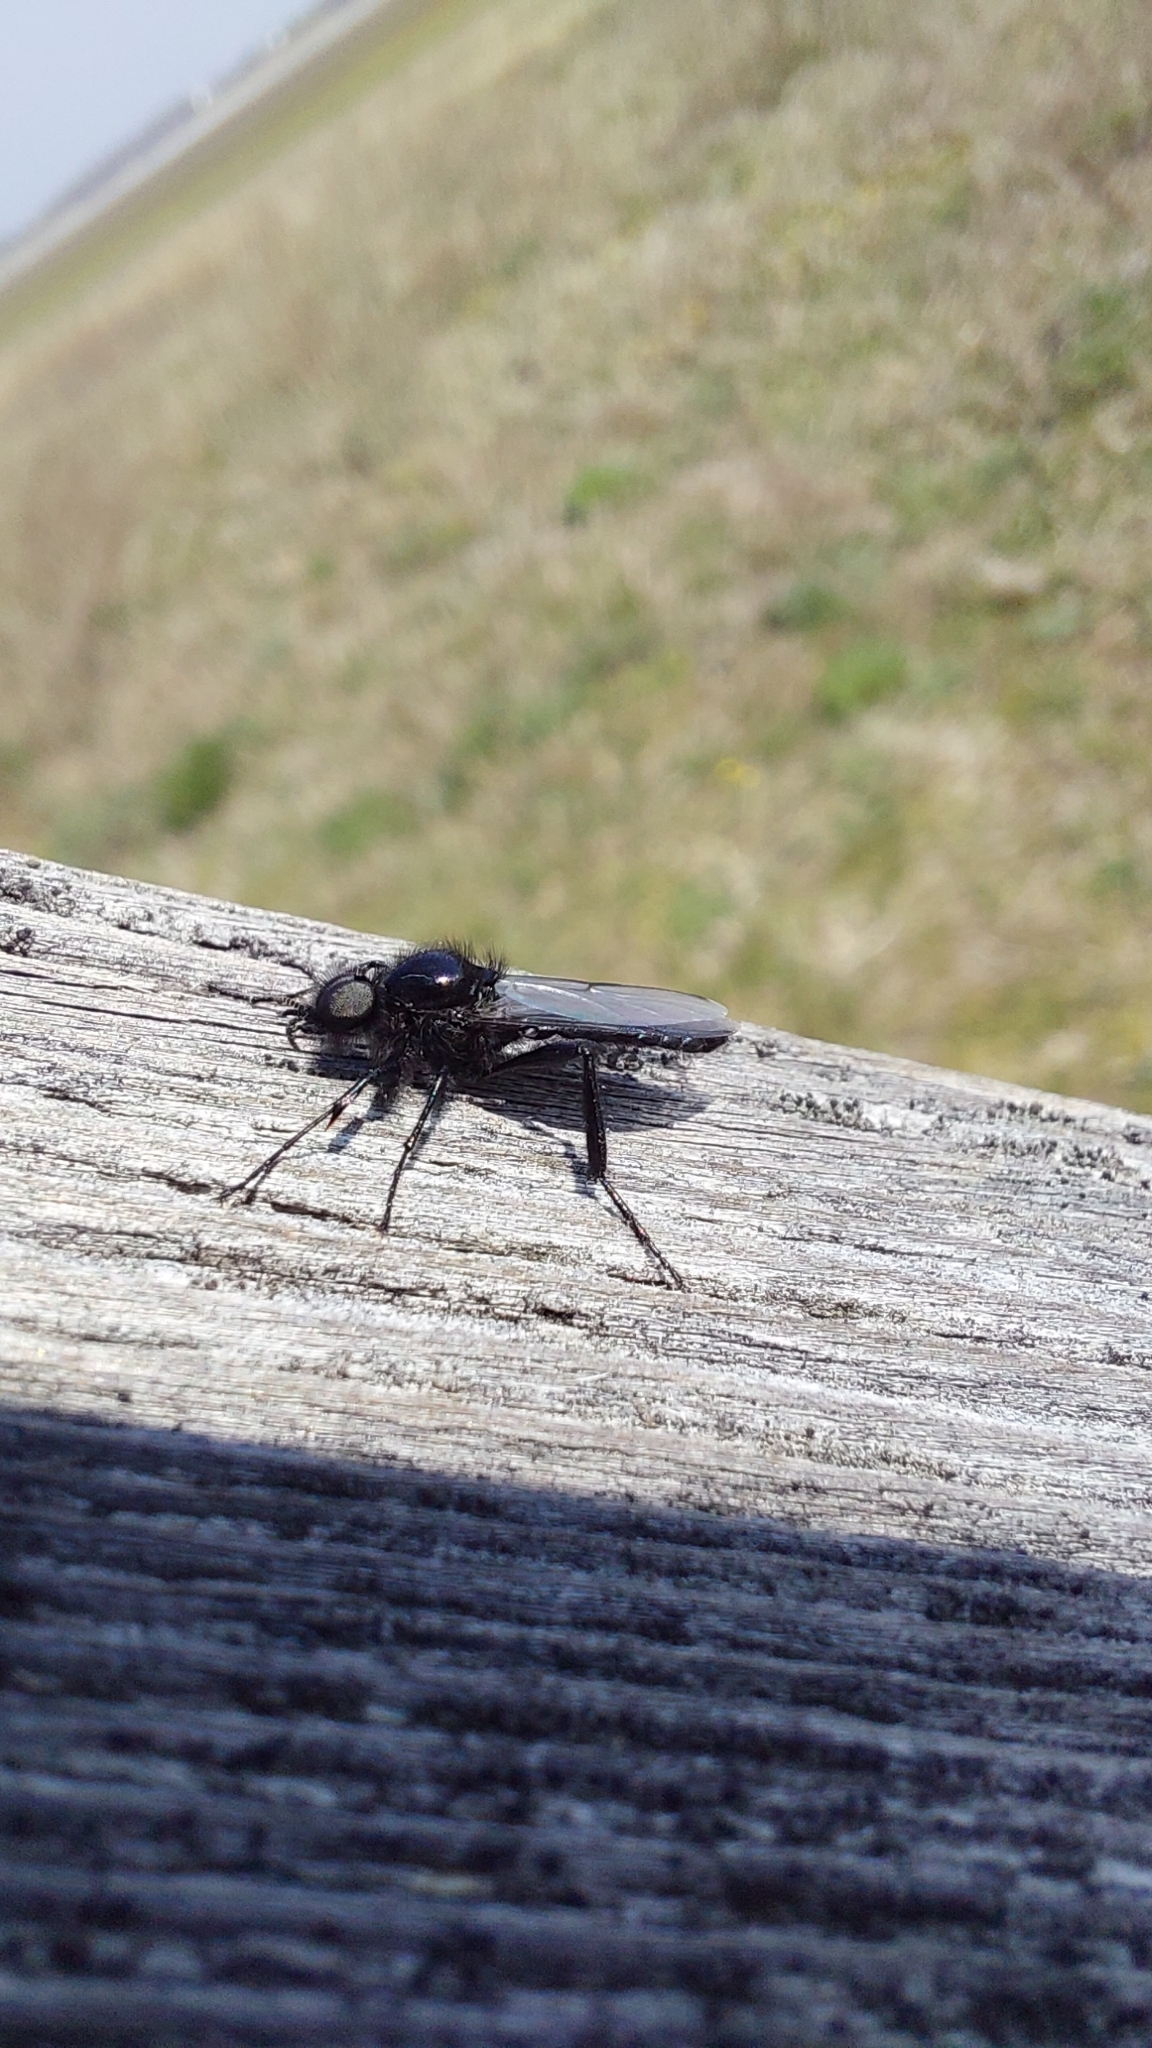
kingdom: Animalia
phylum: Arthropoda
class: Insecta
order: Diptera
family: Bibionidae
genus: Bibio
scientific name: Bibio marci
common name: St marks fly
